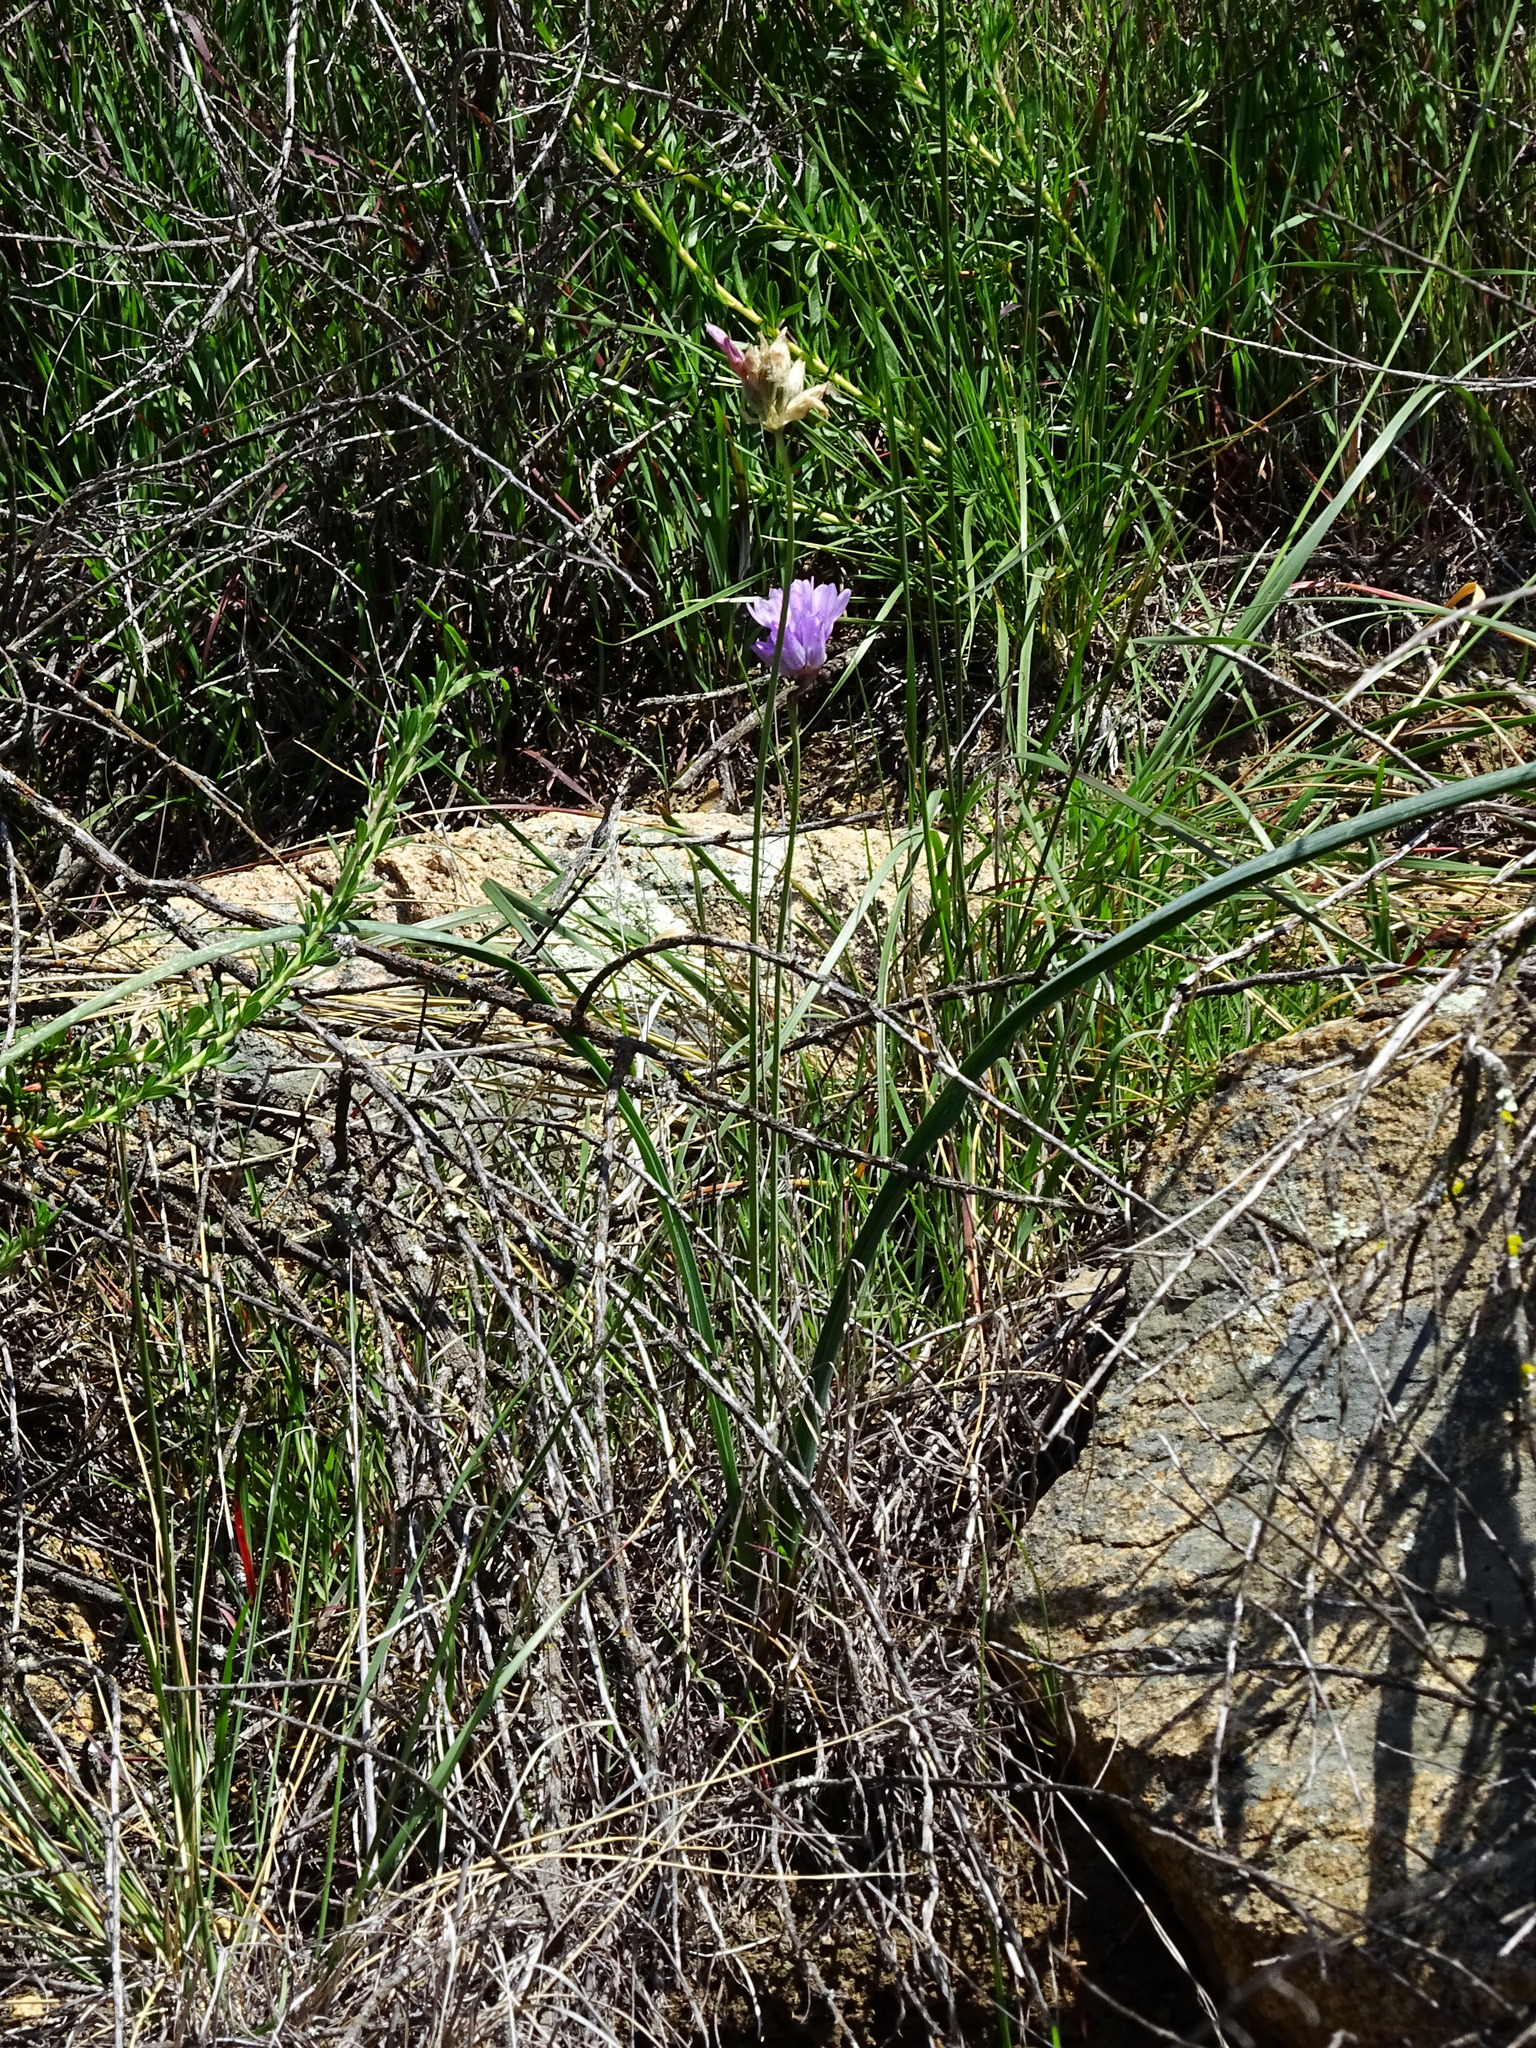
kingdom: Plantae
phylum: Tracheophyta
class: Liliopsida
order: Asparagales
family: Asparagaceae
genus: Dipterostemon
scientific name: Dipterostemon capitatus
